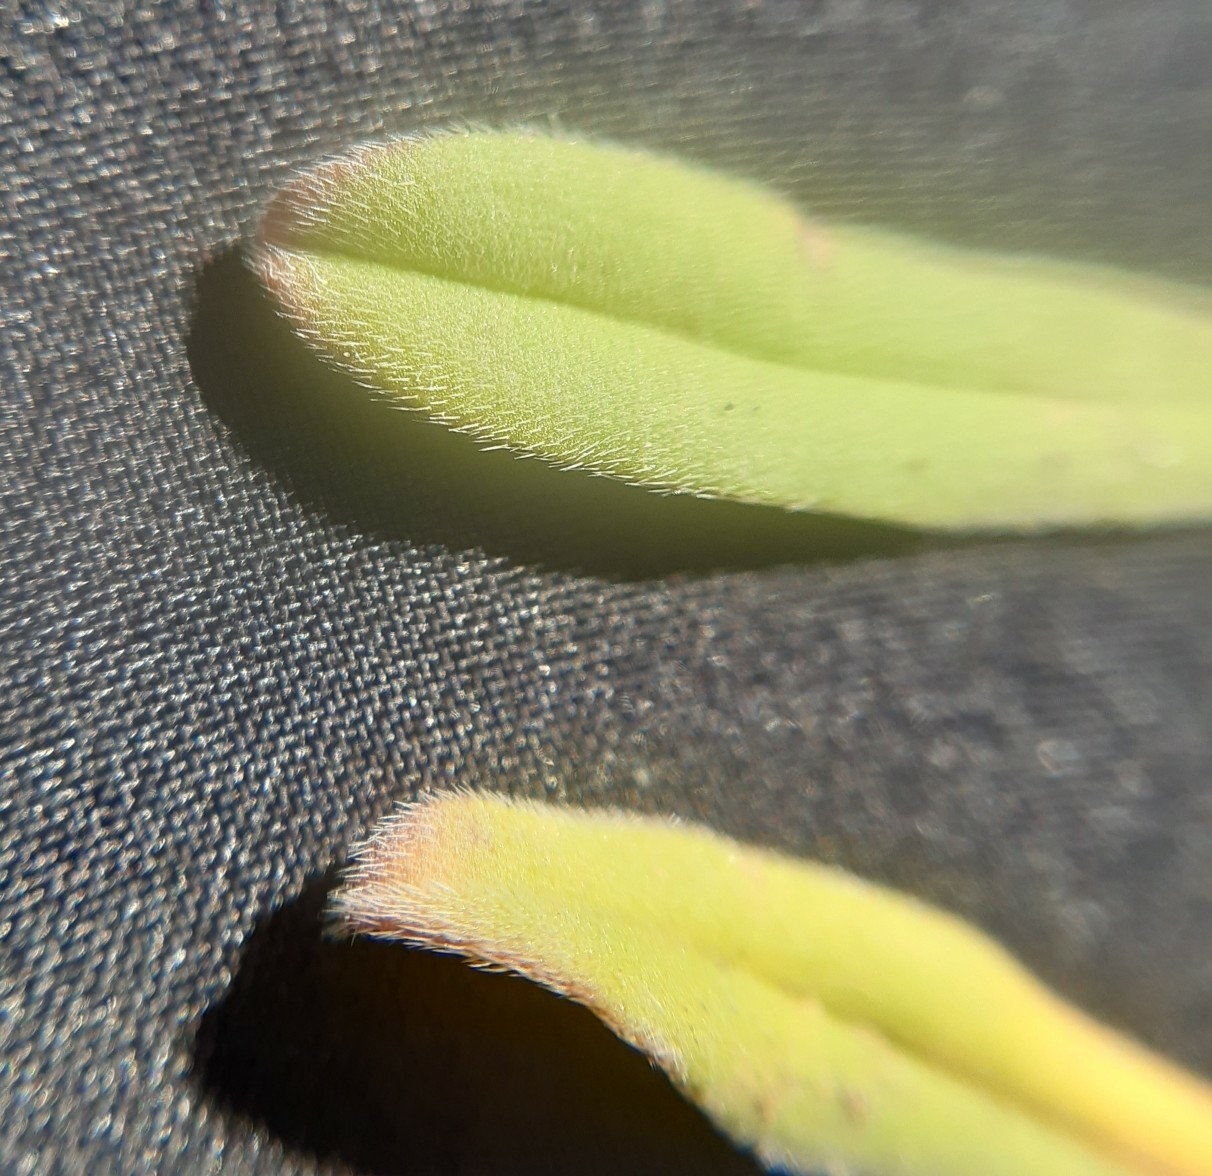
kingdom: Plantae
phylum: Tracheophyta
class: Magnoliopsida
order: Boraginales
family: Boraginaceae
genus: Buglossoides
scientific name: Buglossoides incrassata
